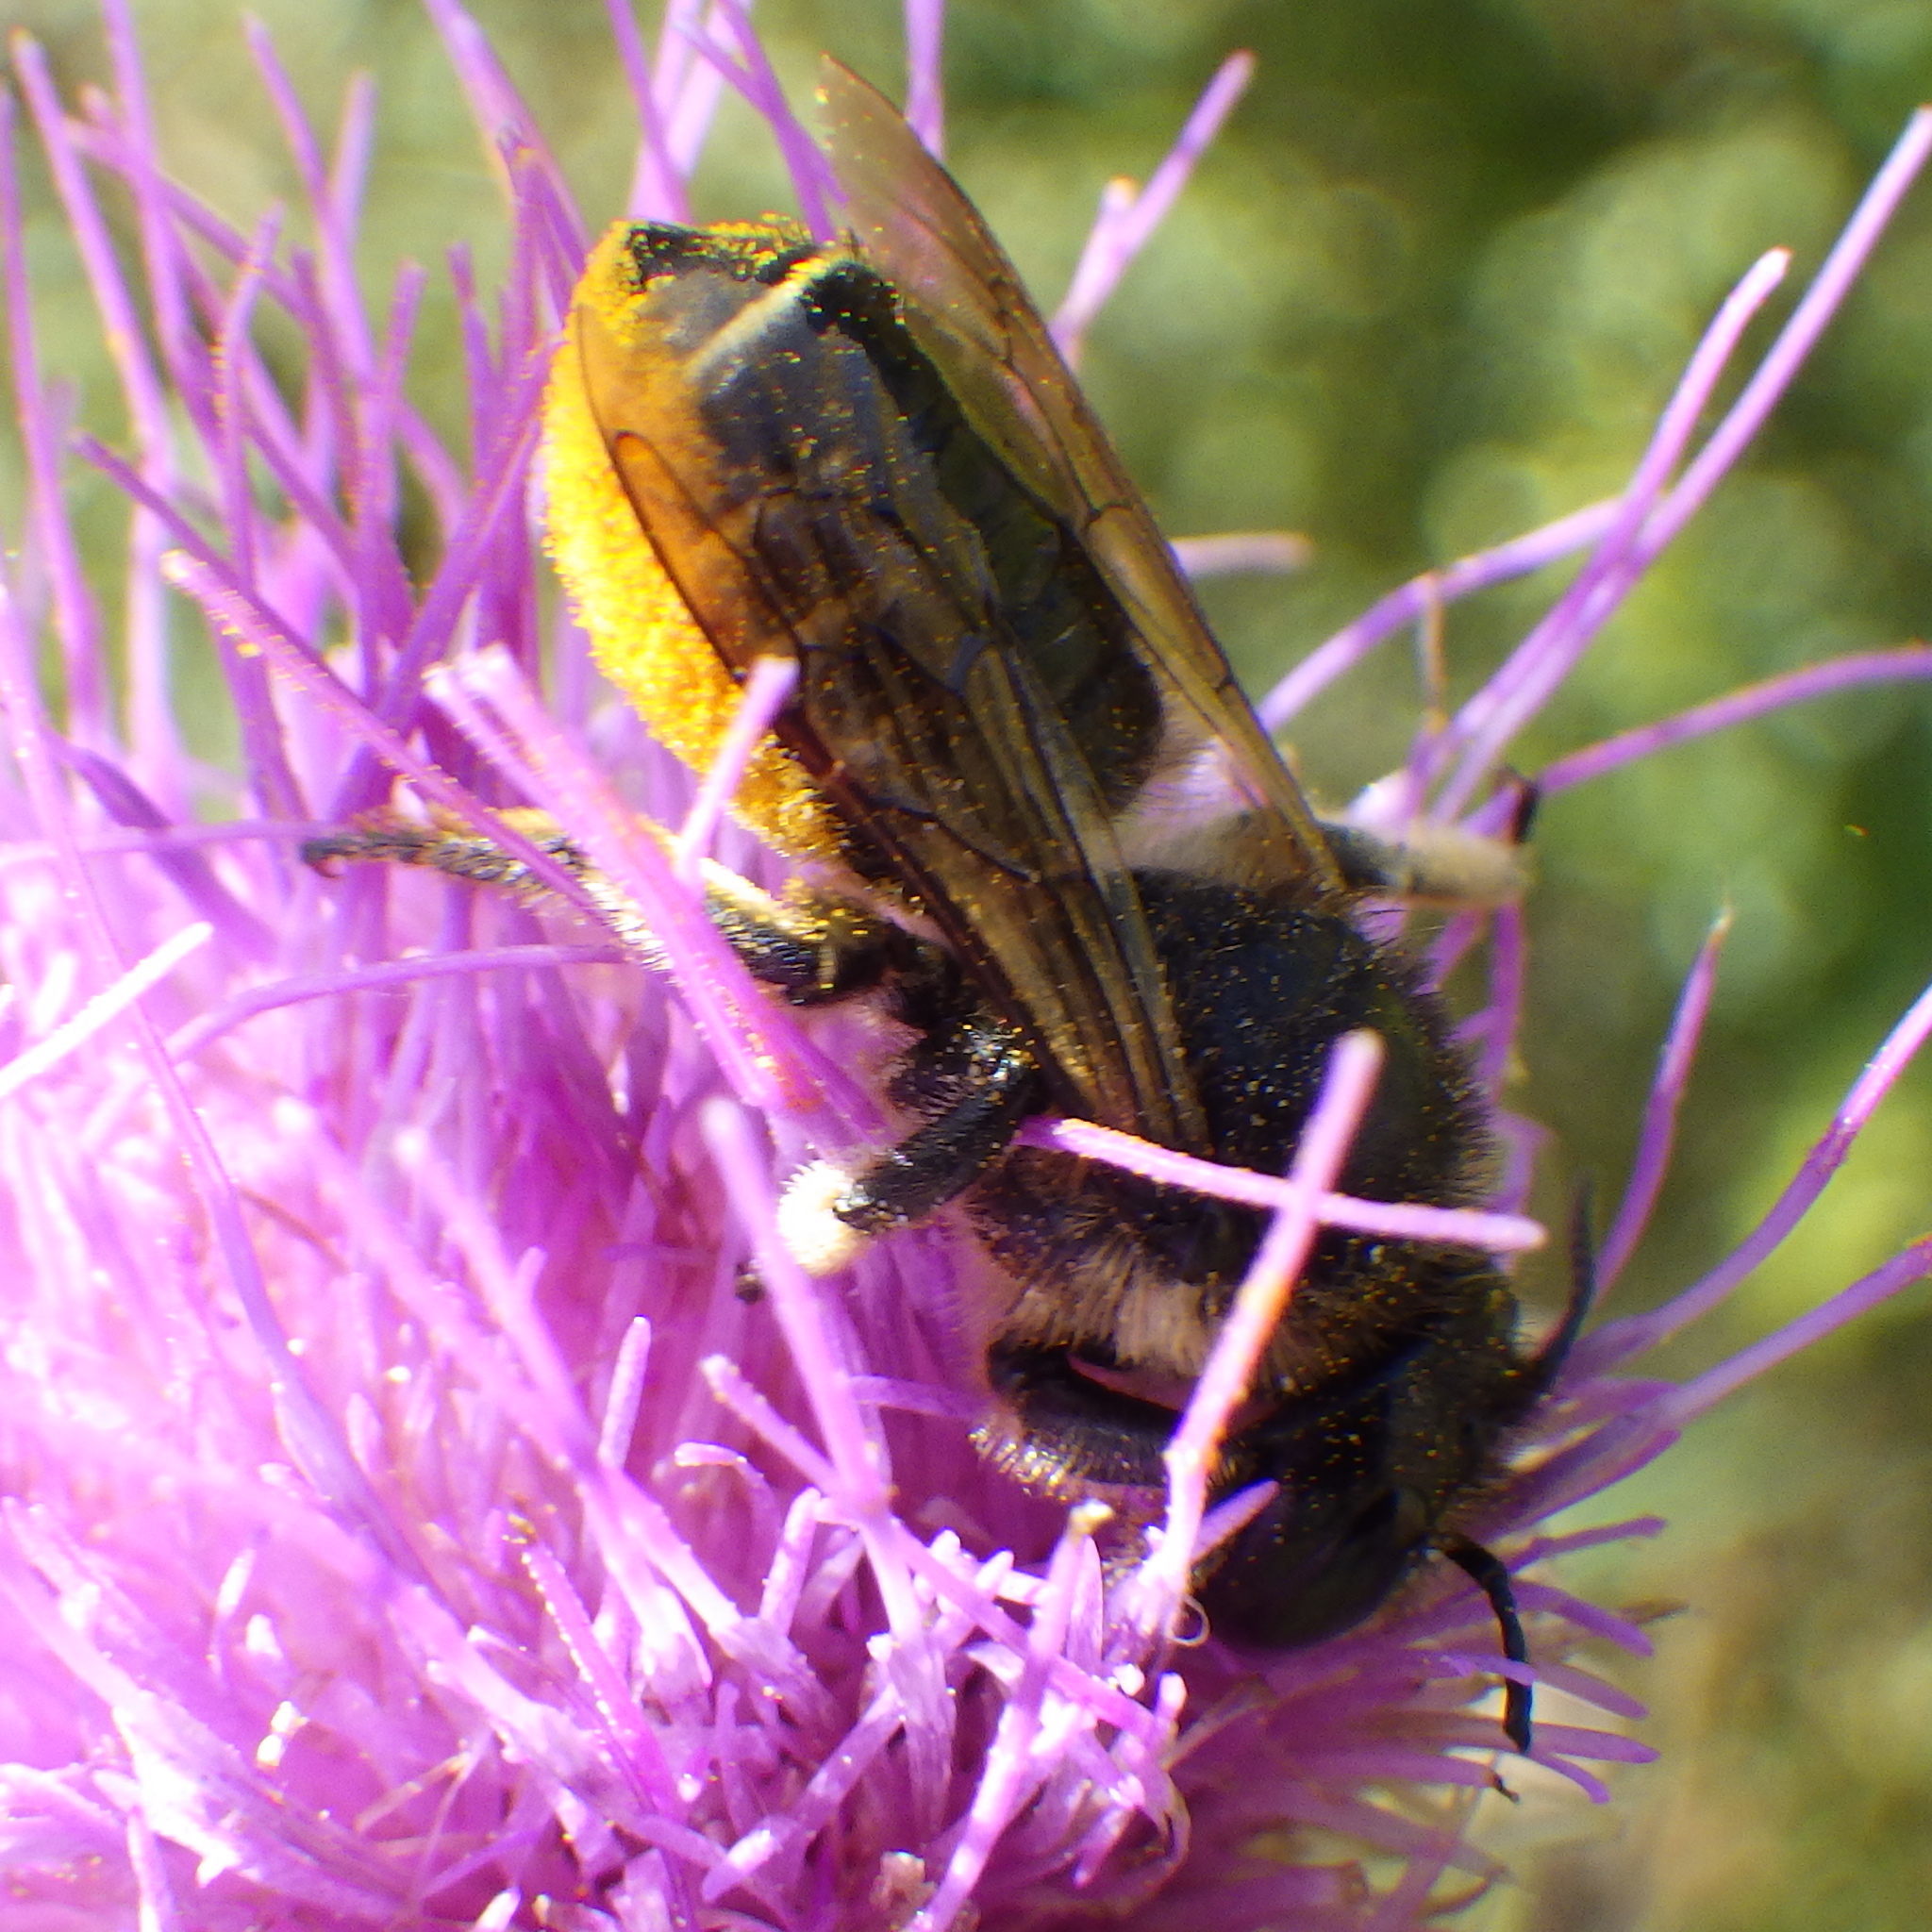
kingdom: Animalia
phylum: Arthropoda
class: Insecta
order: Hymenoptera
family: Megachilidae
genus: Megachile
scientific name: Megachile inermis
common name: Unarmed leafcutter bee
